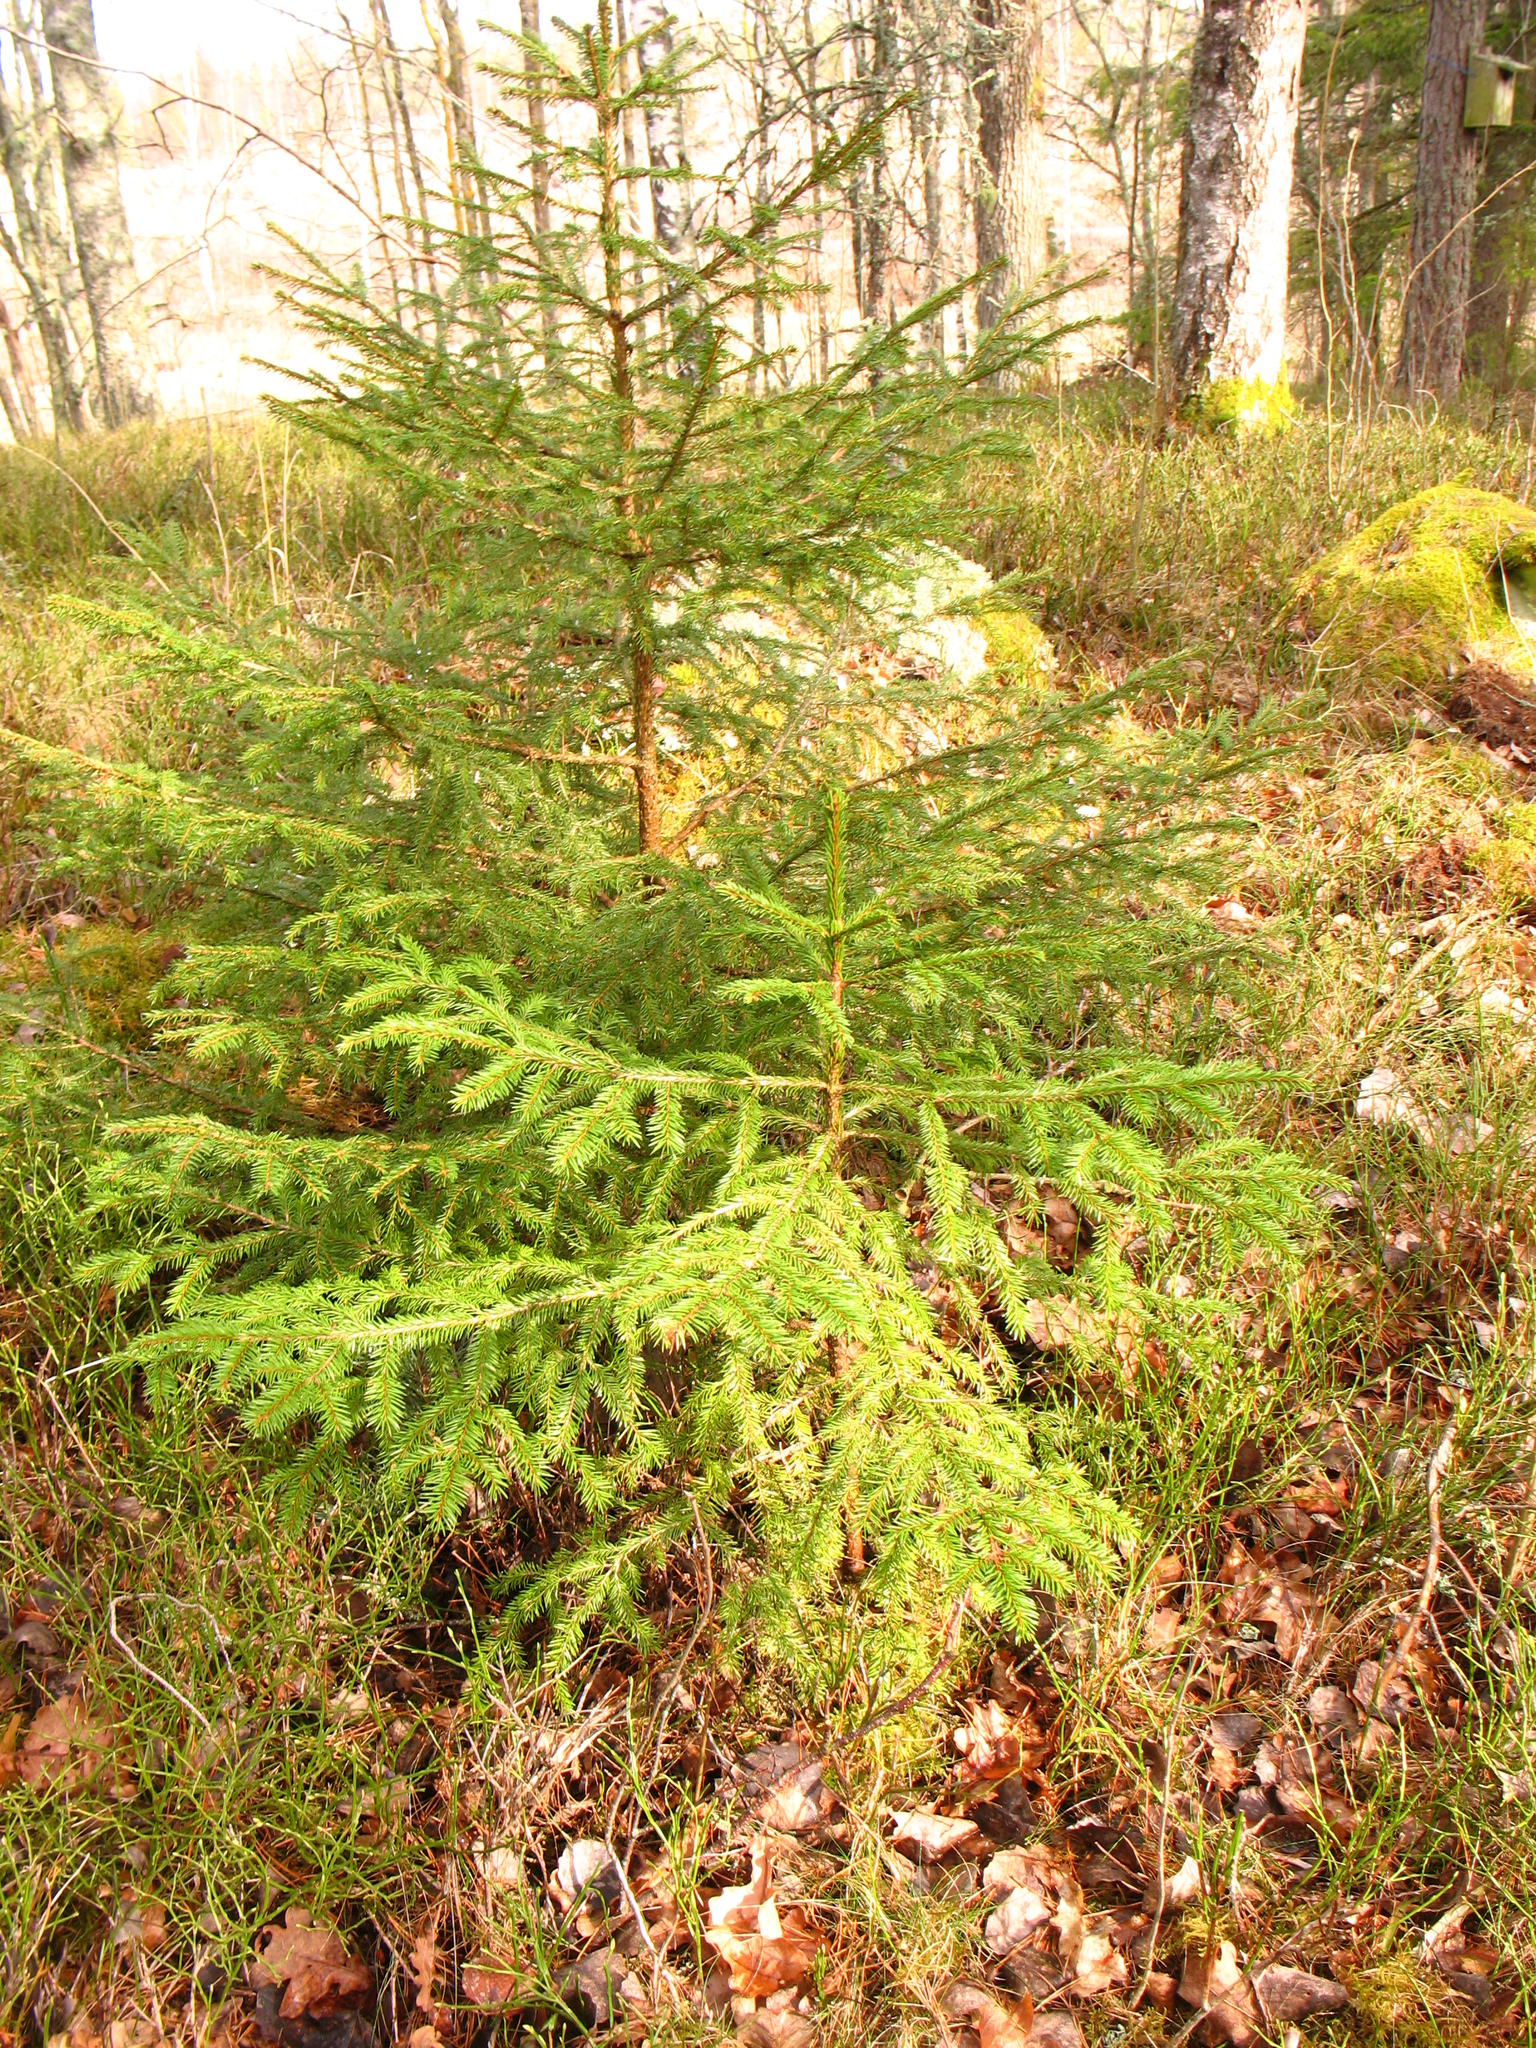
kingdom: Plantae
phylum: Tracheophyta
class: Pinopsida
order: Pinales
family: Pinaceae
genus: Picea
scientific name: Picea abies
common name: Norway spruce
